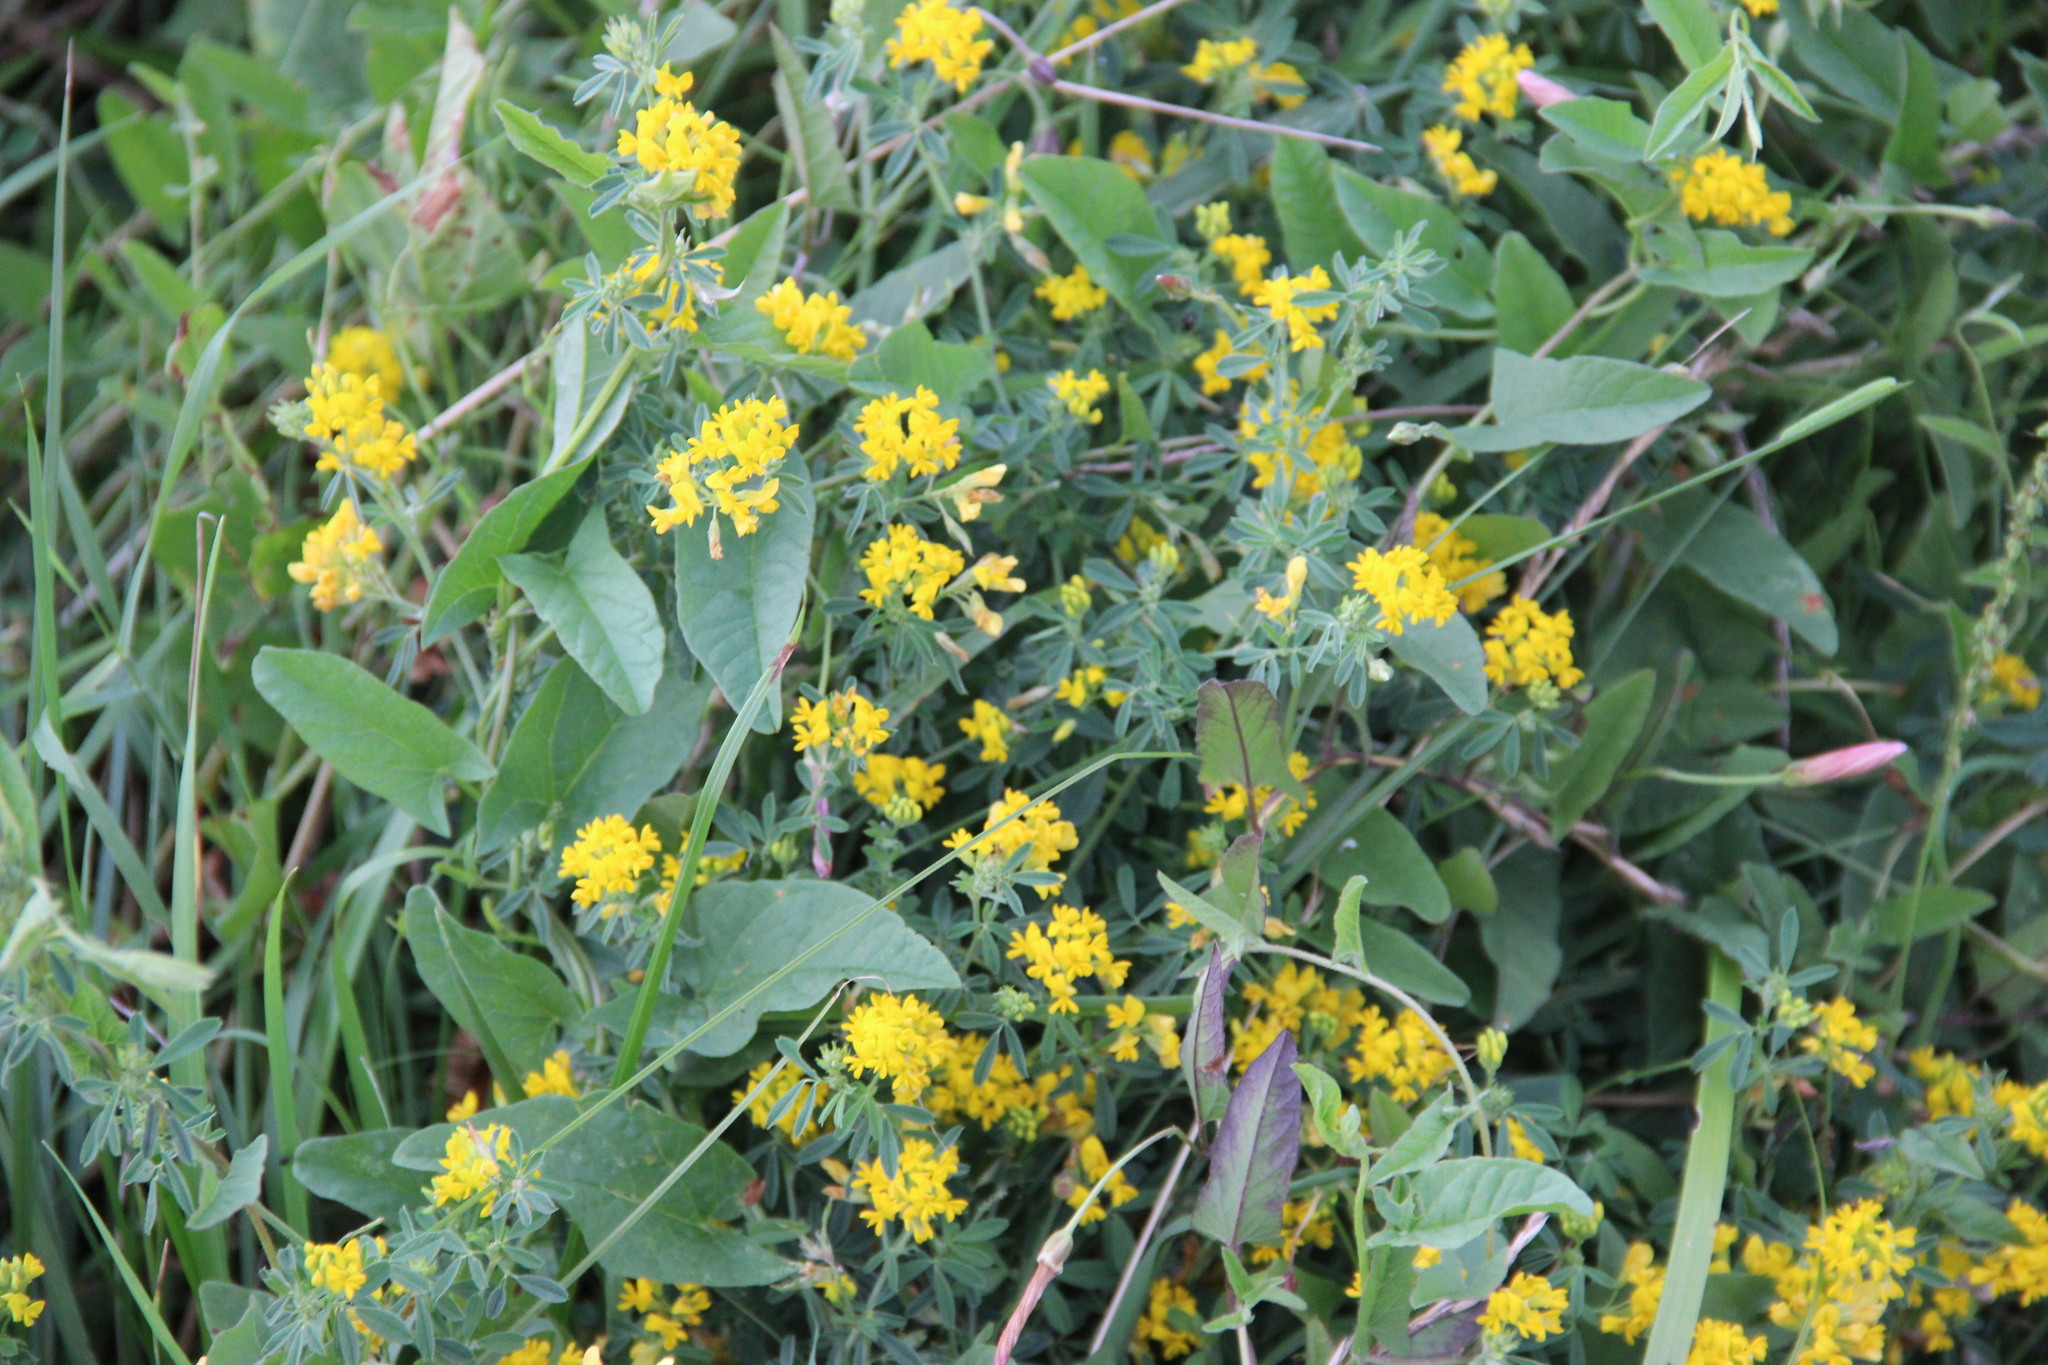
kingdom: Plantae
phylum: Tracheophyta
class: Magnoliopsida
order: Fabales
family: Fabaceae
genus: Medicago
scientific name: Medicago falcata
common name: Sickle medick
